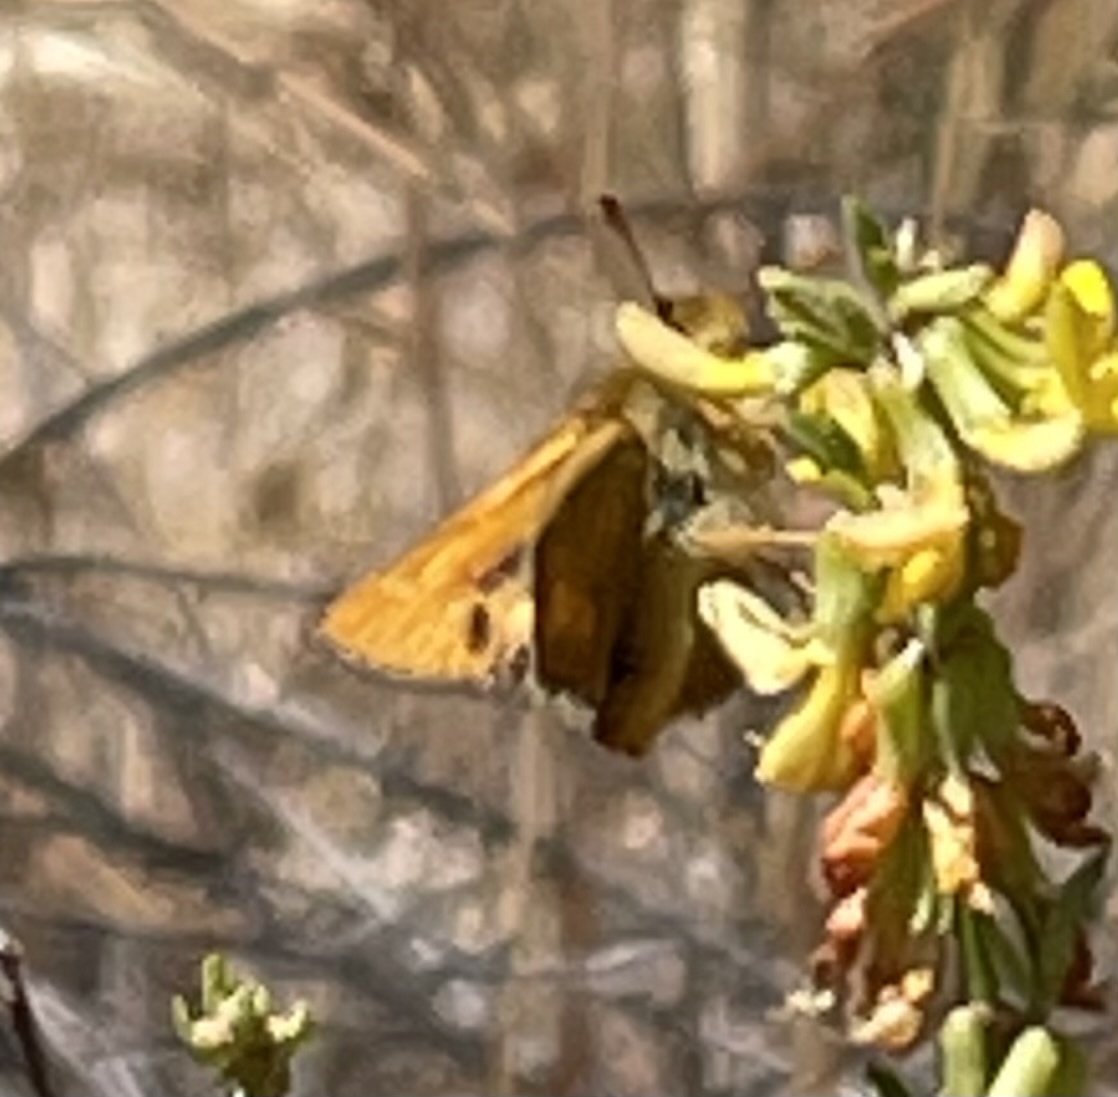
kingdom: Animalia
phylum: Arthropoda
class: Insecta
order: Lepidoptera
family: Hesperiidae
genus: Ochlodes
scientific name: Ochlodes agricola
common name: Rural skipper
